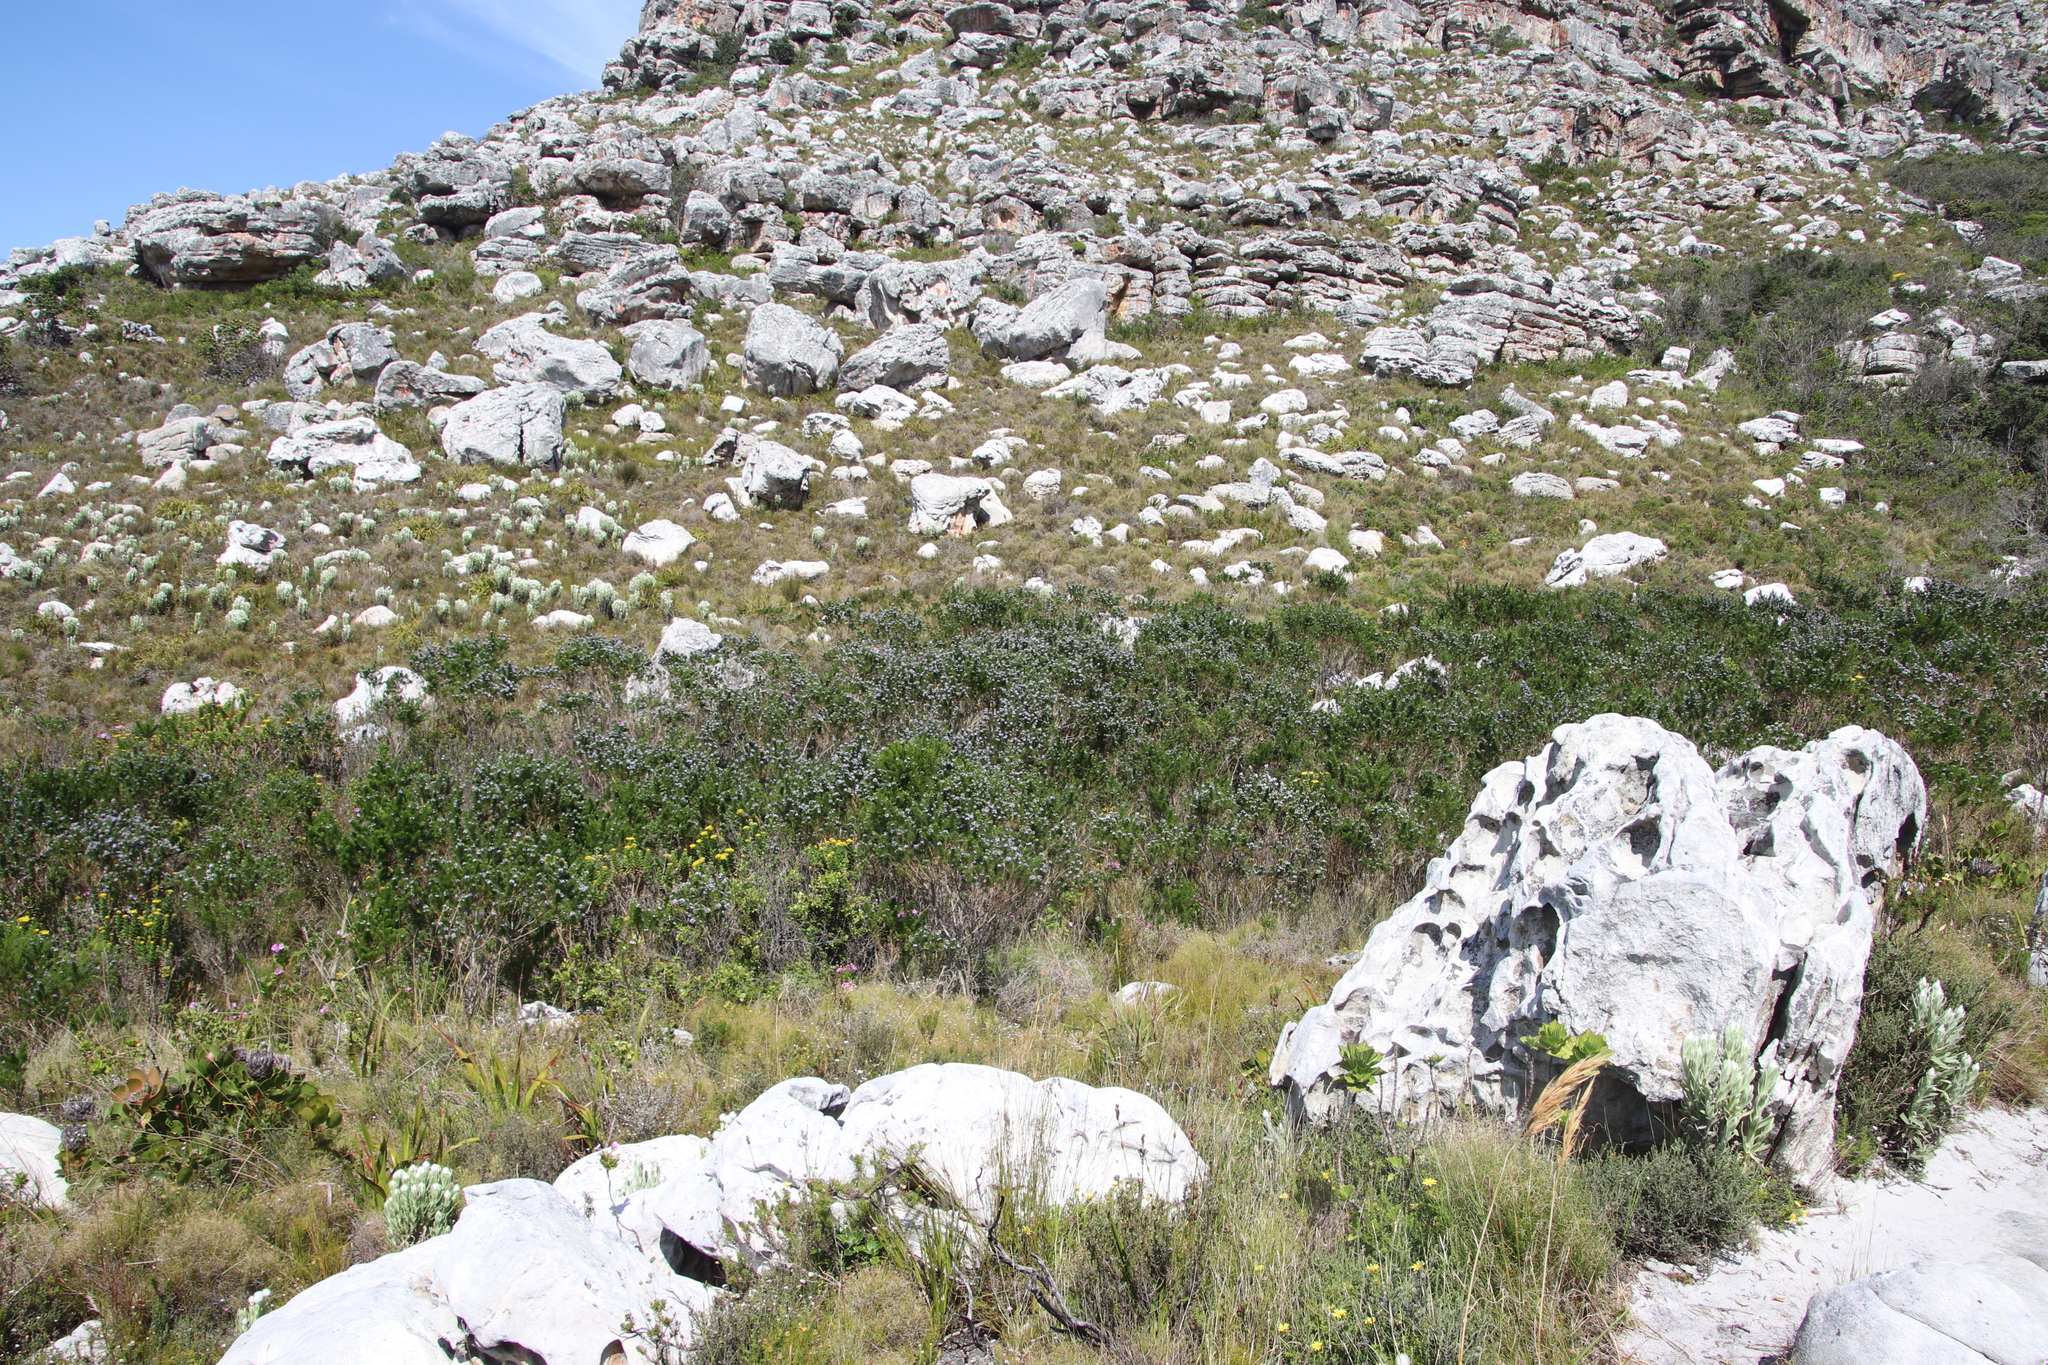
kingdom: Plantae
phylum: Tracheophyta
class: Magnoliopsida
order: Fabales
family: Fabaceae
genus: Psoralea
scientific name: Psoralea pinnata
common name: African scurfpea
